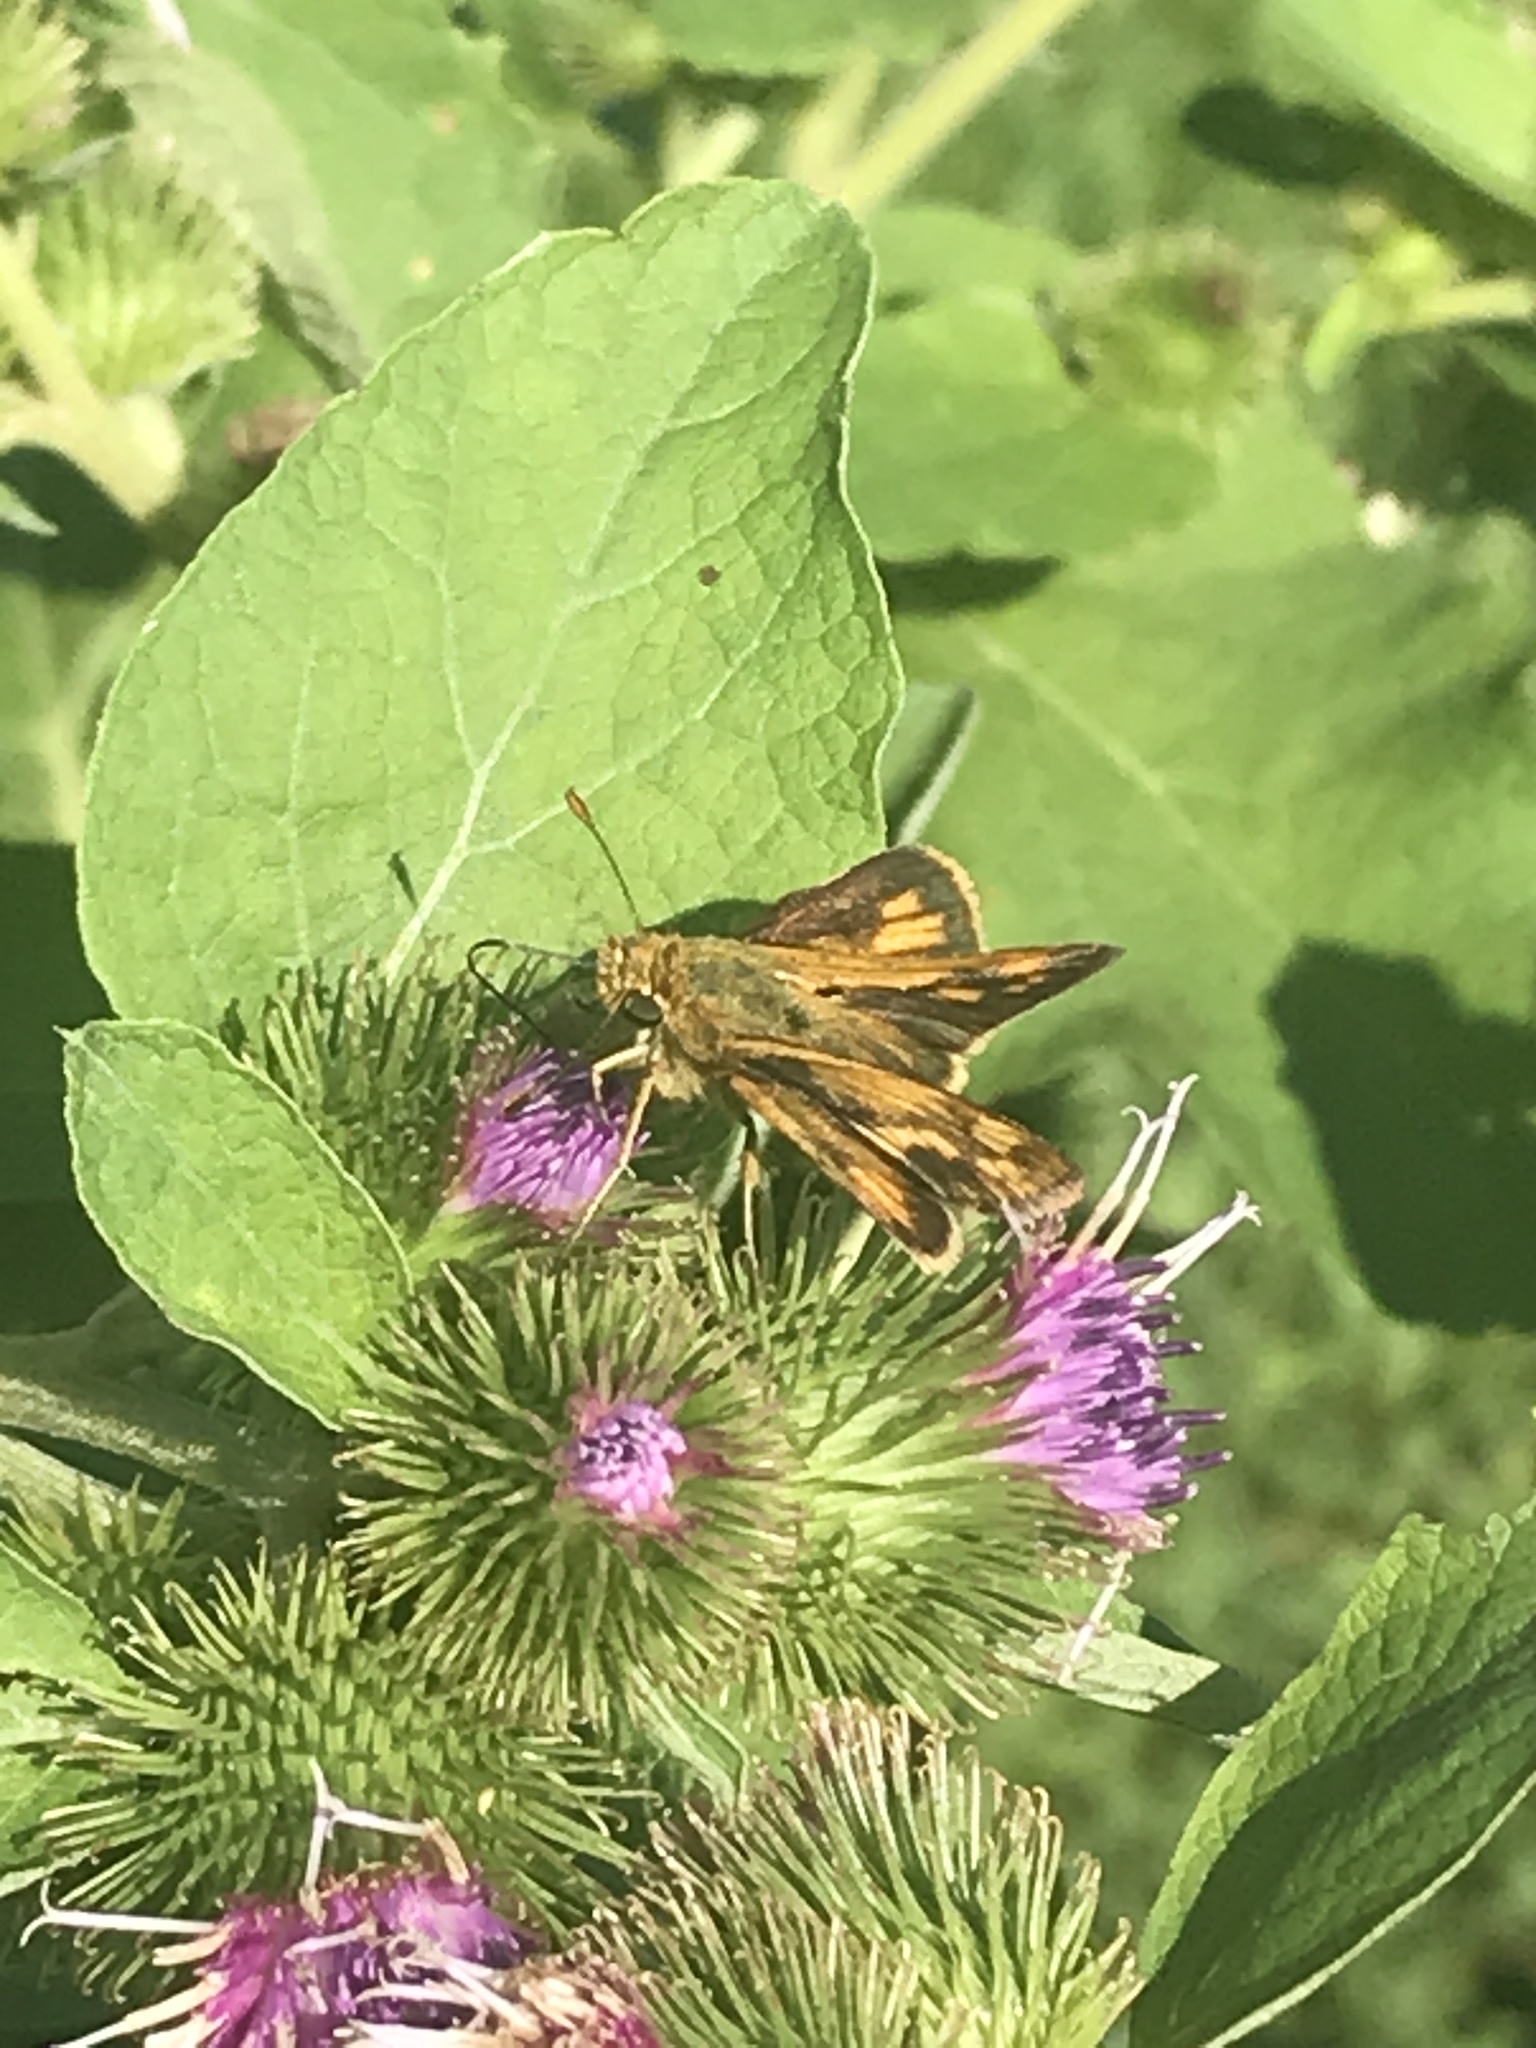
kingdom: Animalia
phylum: Arthropoda
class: Insecta
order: Lepidoptera
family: Hesperiidae
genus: Polites
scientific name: Polites coras
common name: Peck's skipper
